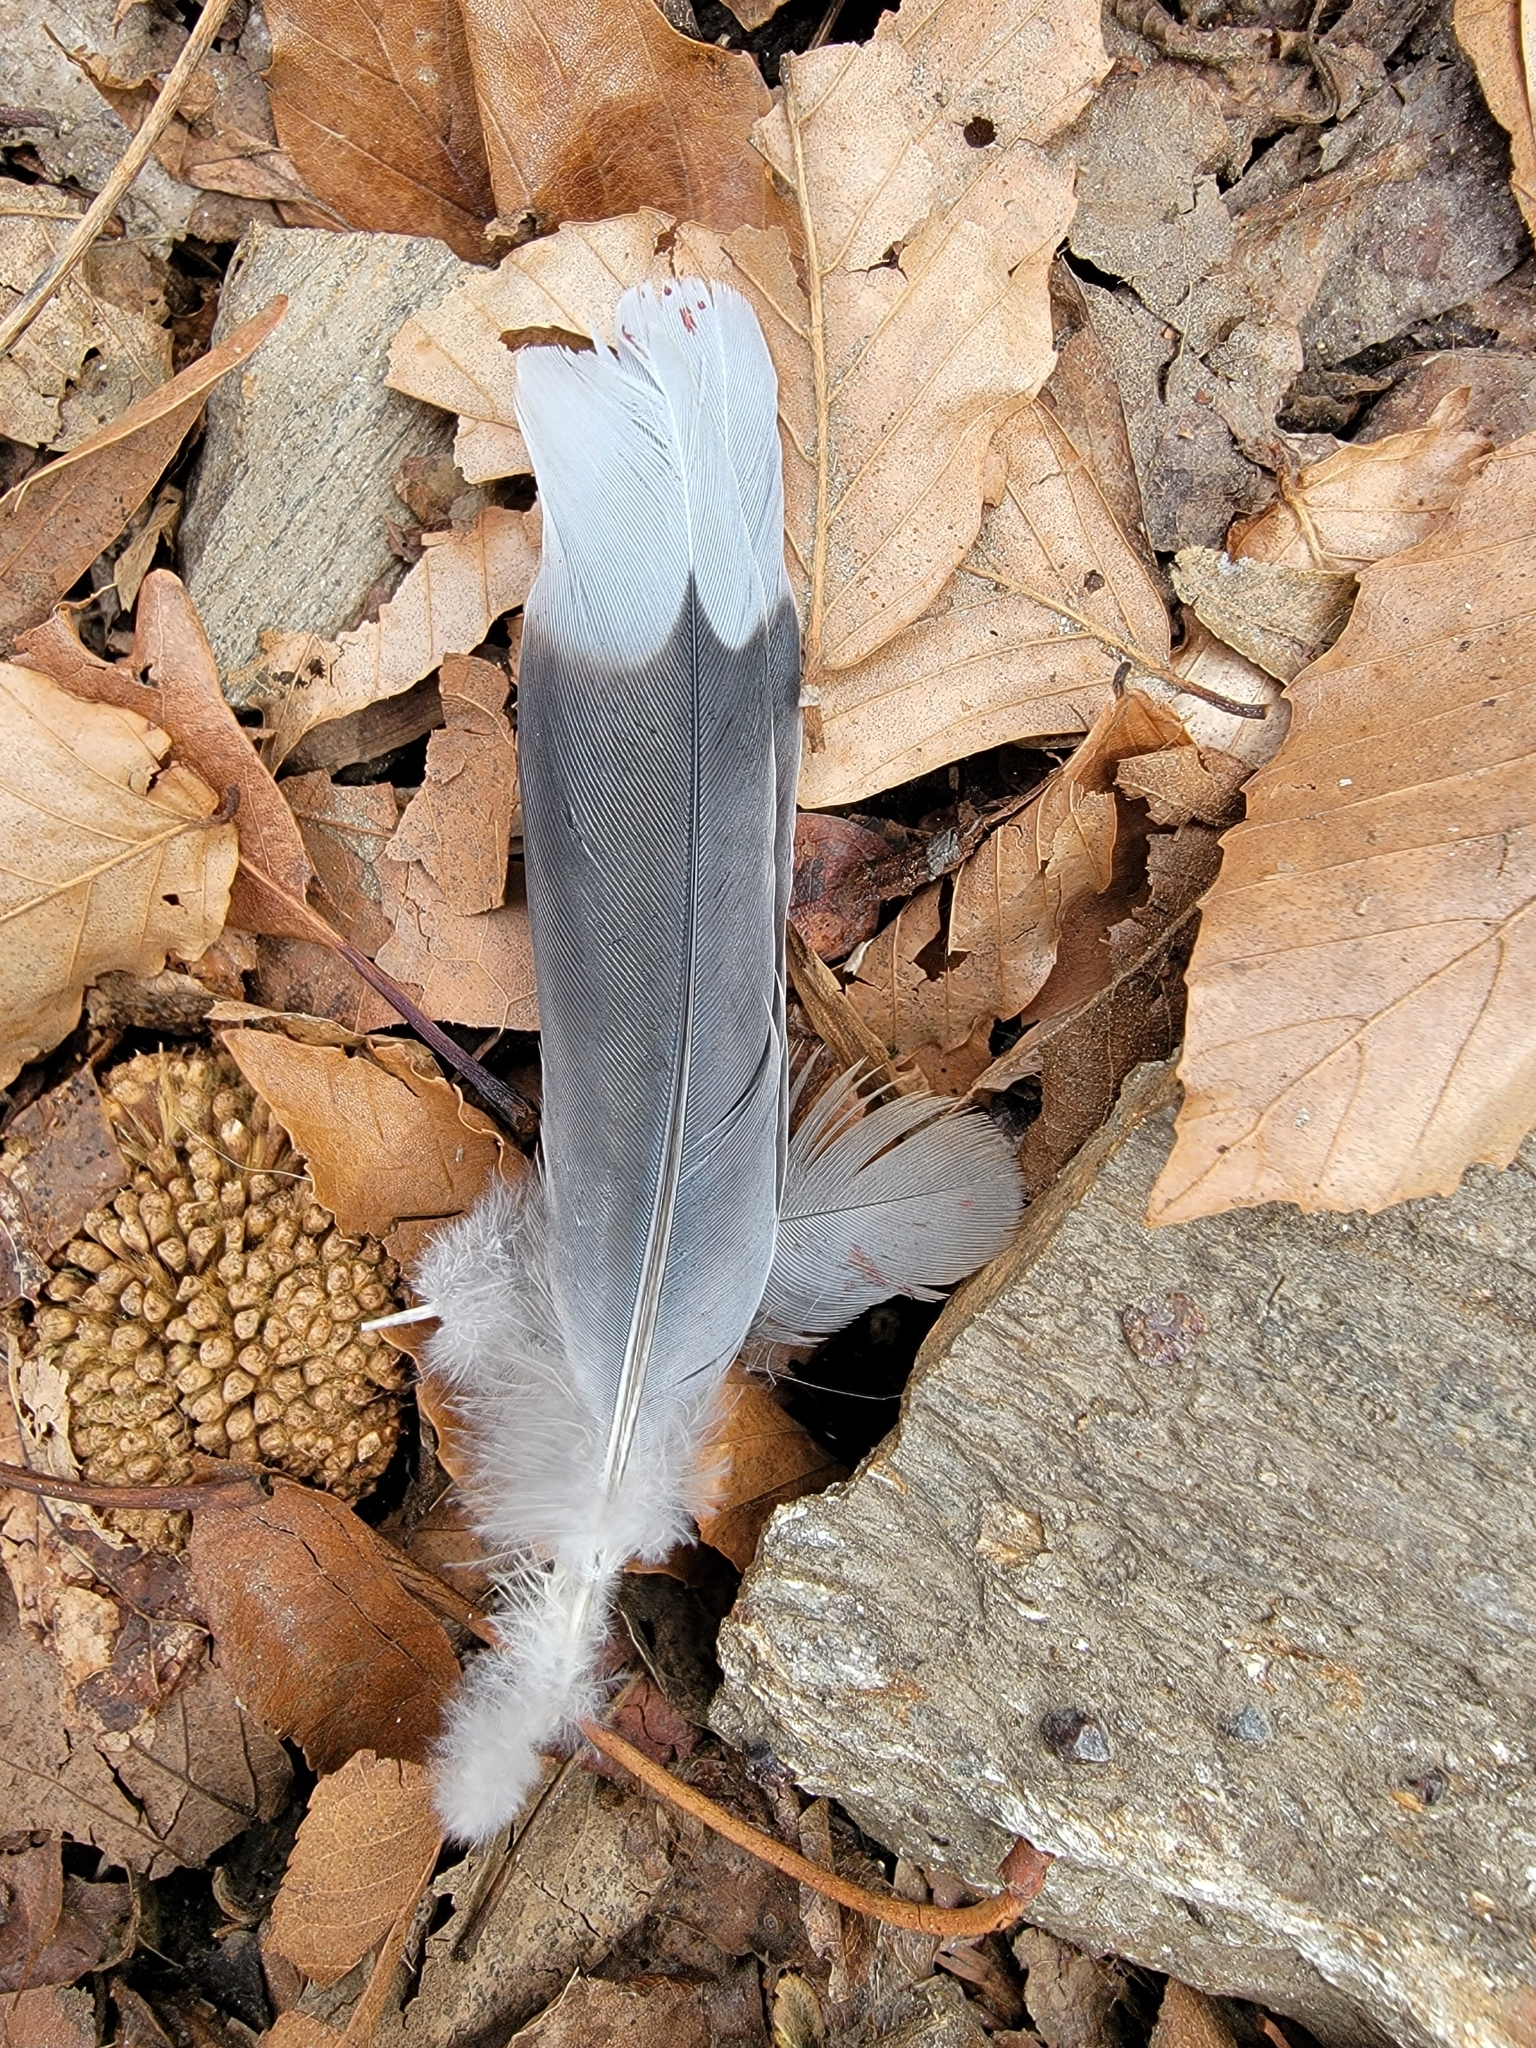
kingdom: Animalia
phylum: Chordata
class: Aves
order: Columbiformes
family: Columbidae
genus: Zenaida
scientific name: Zenaida macroura
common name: Mourning dove
